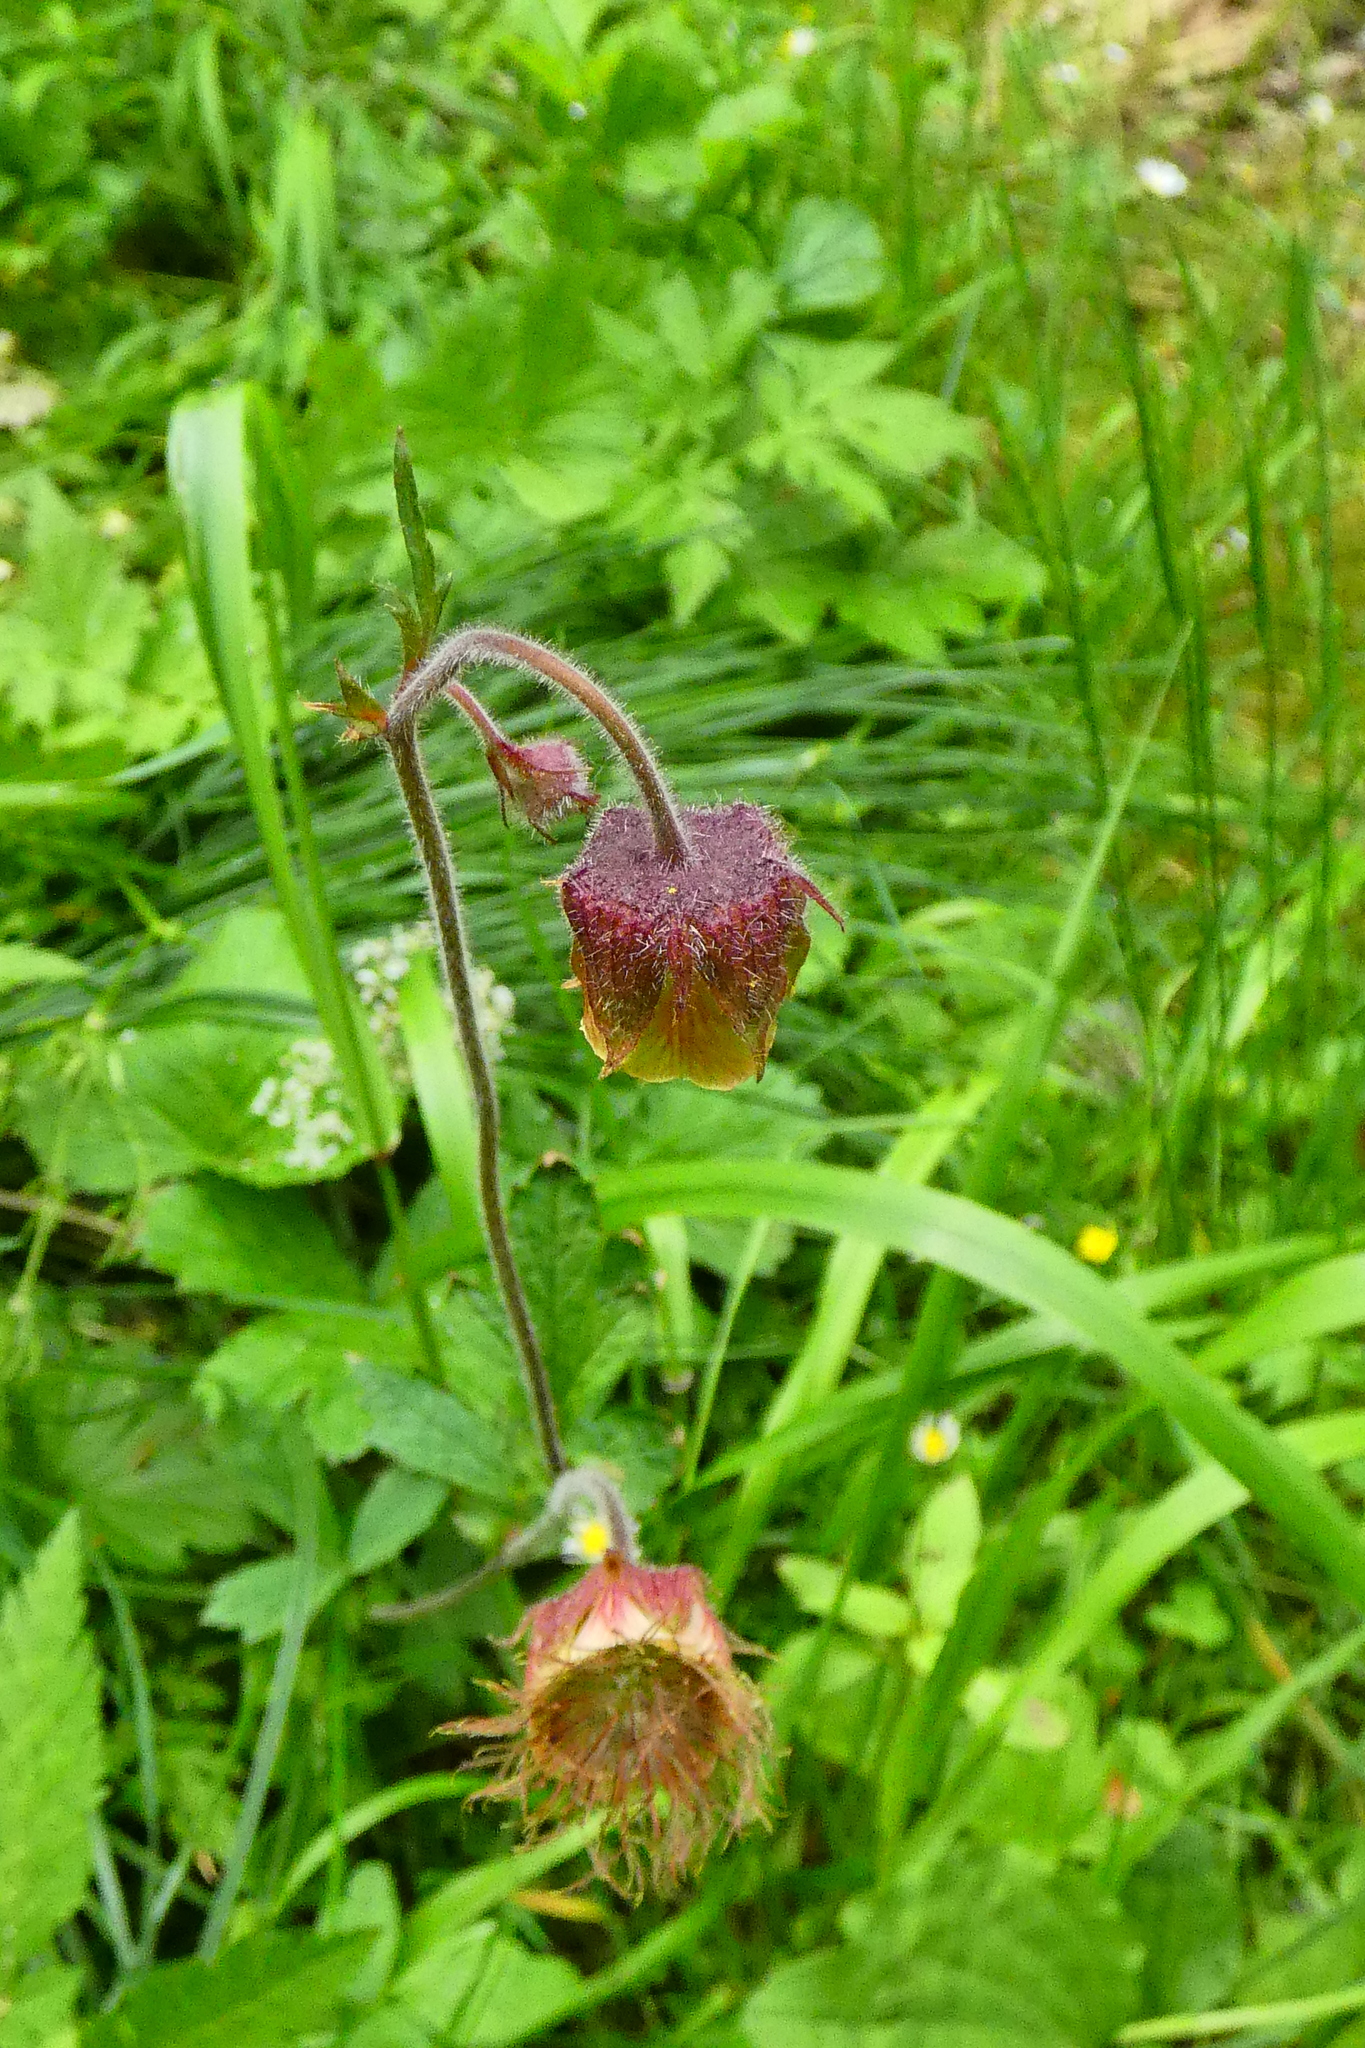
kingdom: Plantae
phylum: Tracheophyta
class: Magnoliopsida
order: Rosales
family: Rosaceae
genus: Geum
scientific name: Geum rivale
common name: Water avens
